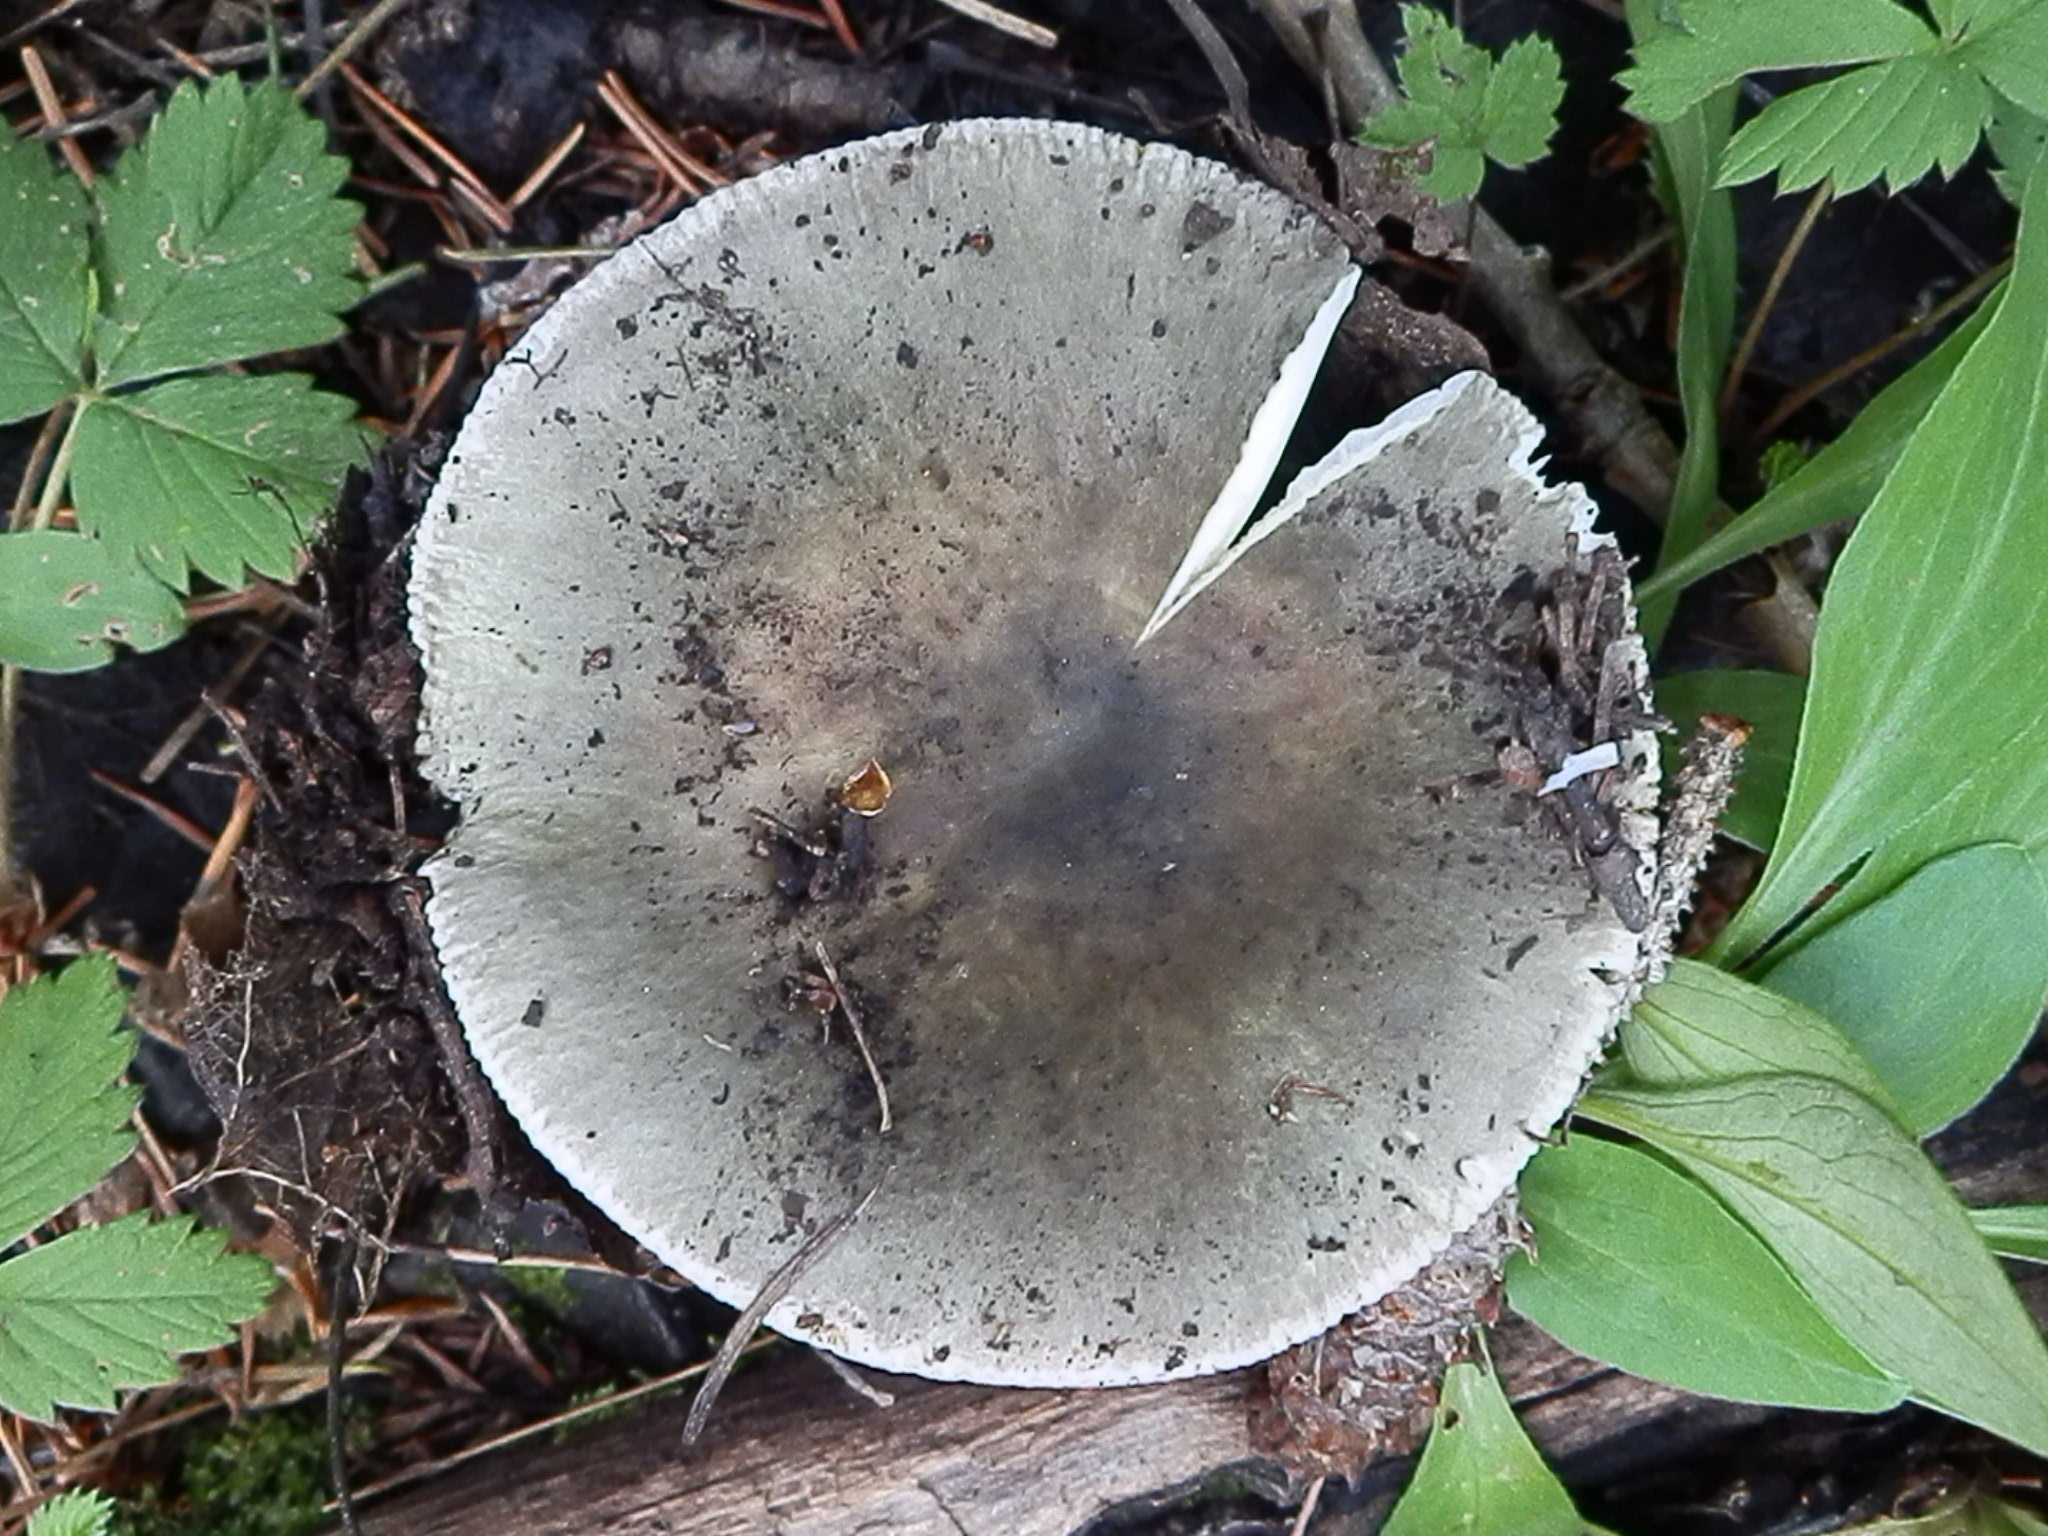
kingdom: Fungi
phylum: Basidiomycota
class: Agaricomycetes
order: Russulales
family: Russulaceae
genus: Russula
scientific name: Russula aeruginea
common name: Green brittlegill
